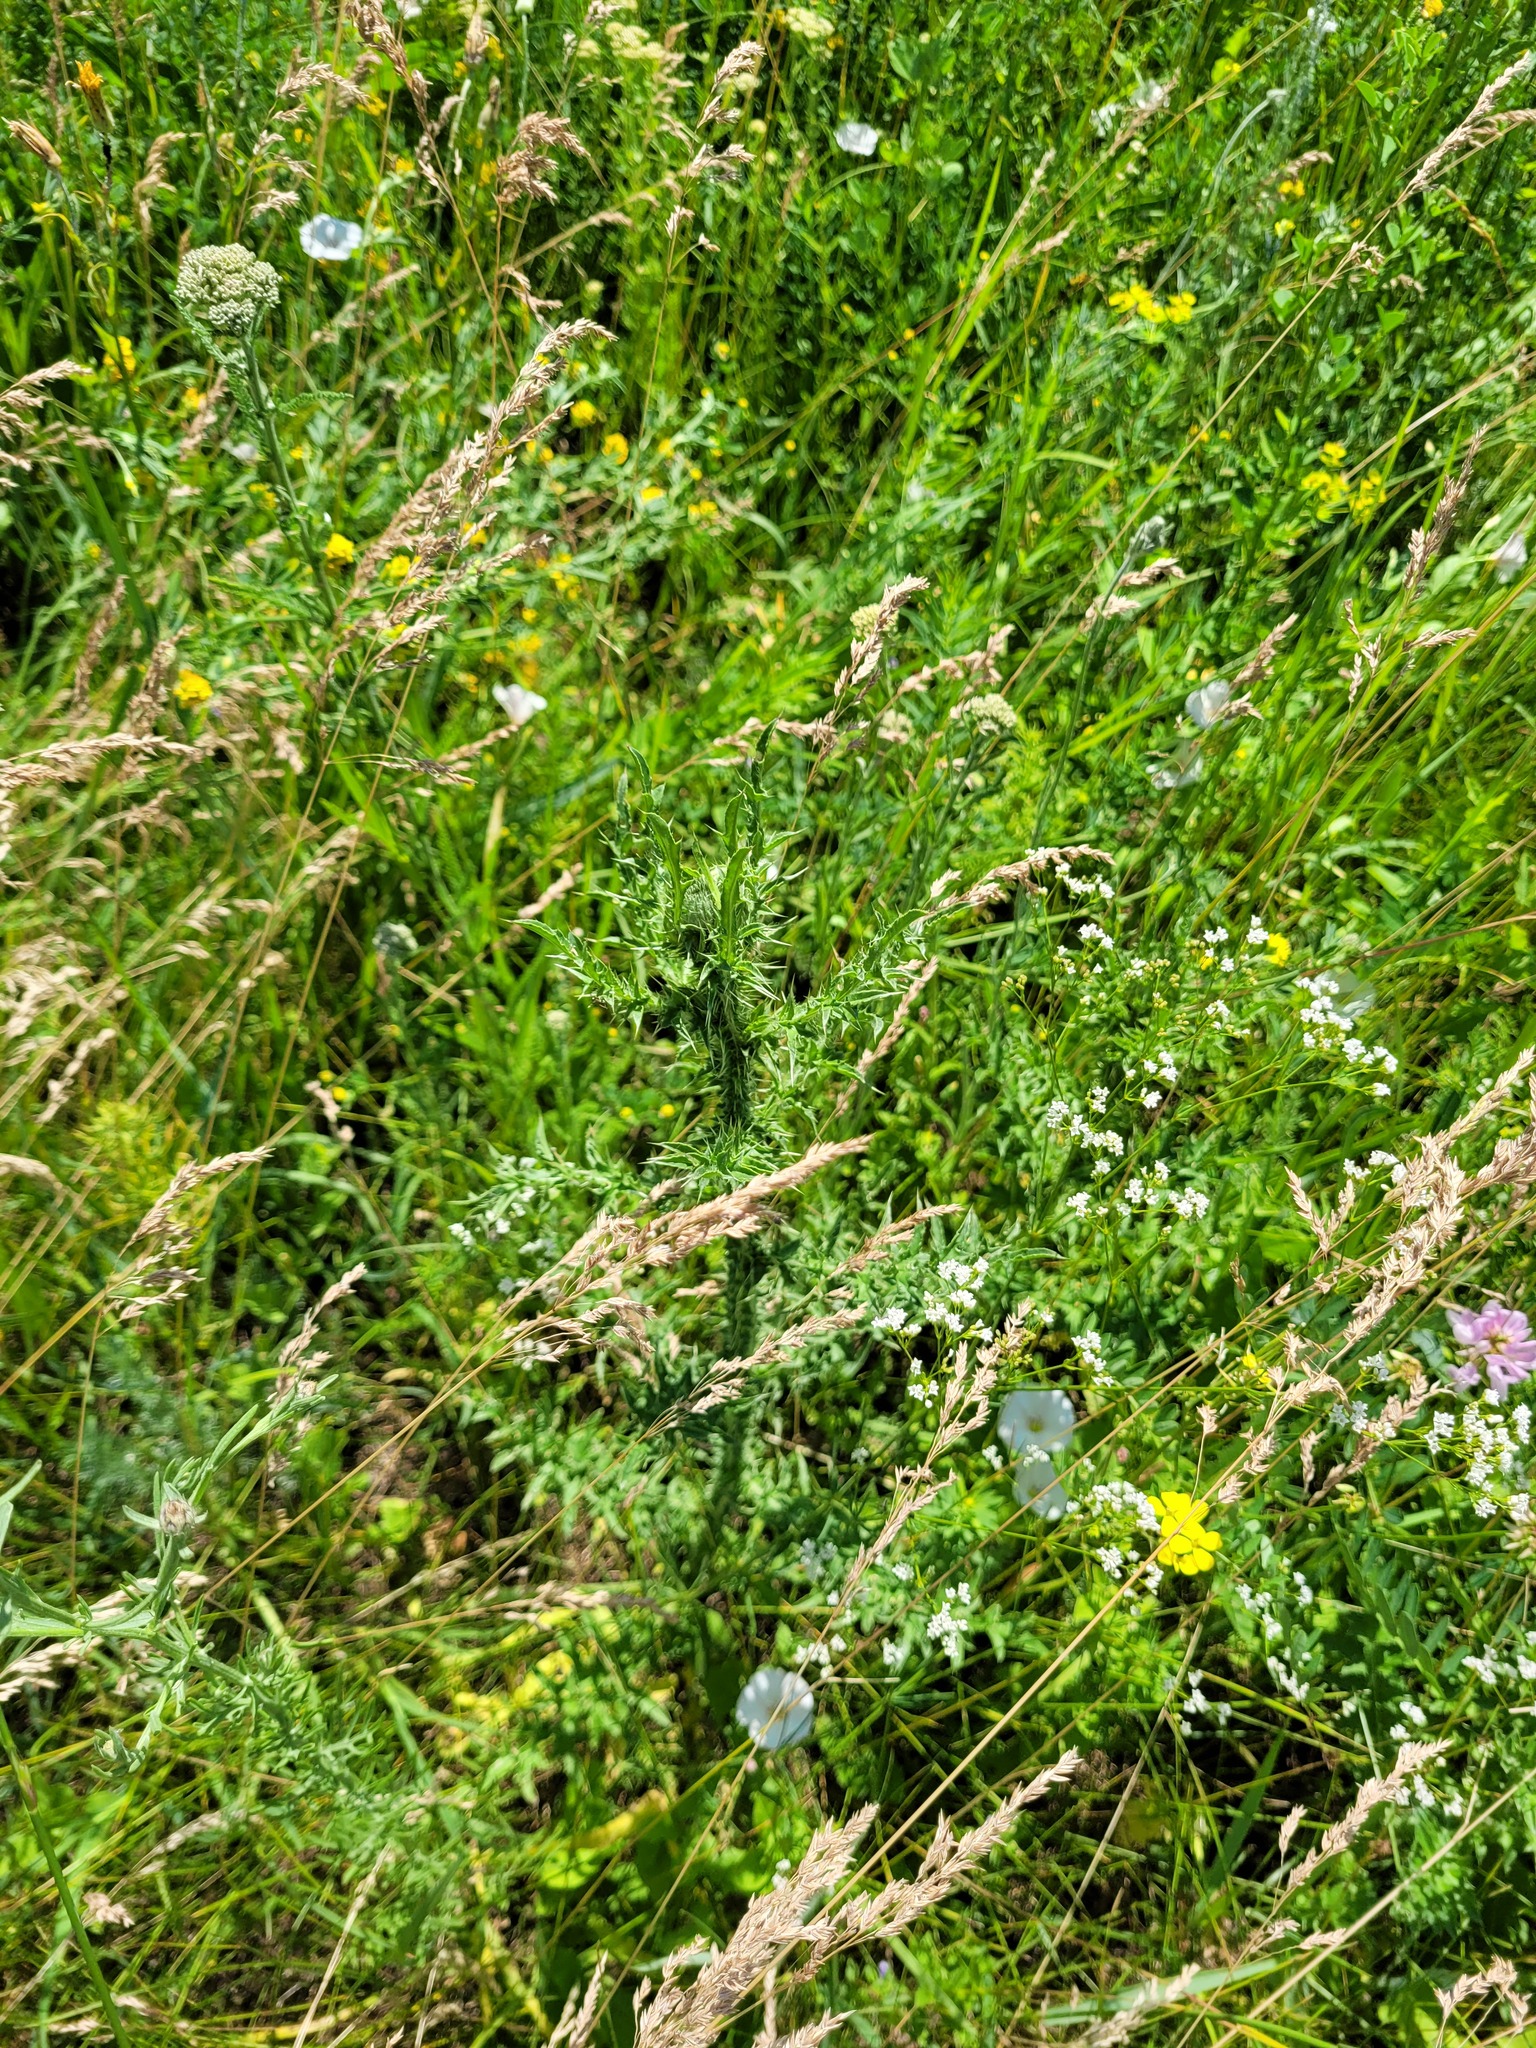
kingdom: Plantae
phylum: Tracheophyta
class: Magnoliopsida
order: Asterales
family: Asteraceae
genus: Carduus
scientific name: Carduus acanthoides
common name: Plumeless thistle
